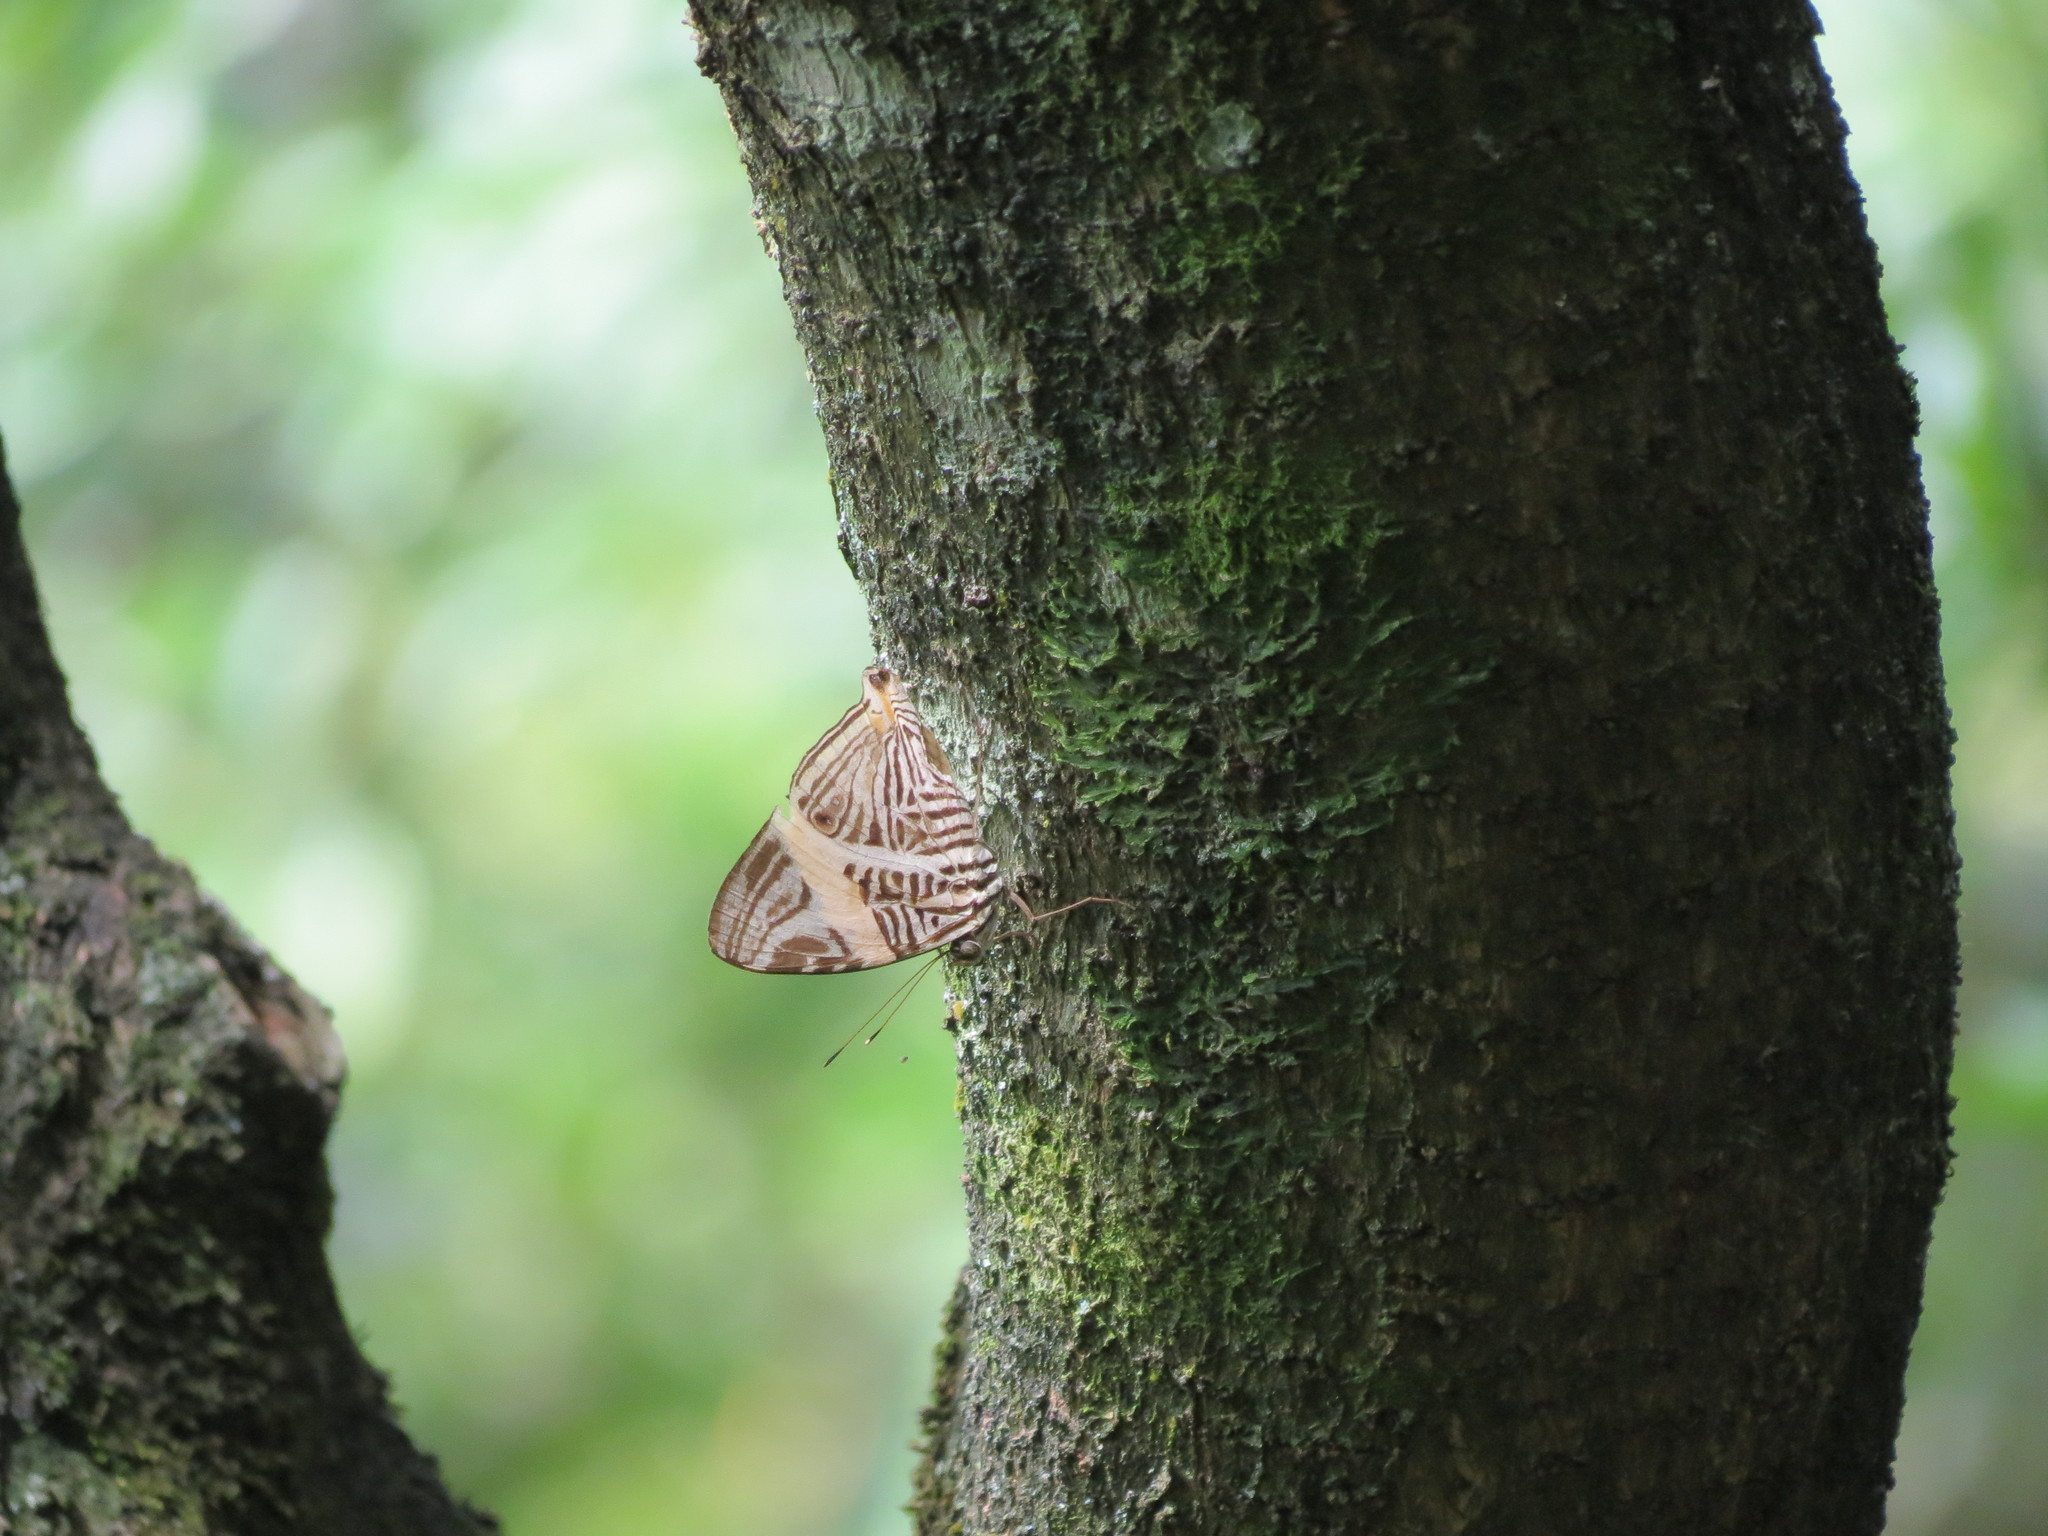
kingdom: Animalia
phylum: Arthropoda
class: Insecta
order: Lepidoptera
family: Nymphalidae
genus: Colobura
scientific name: Colobura dirce
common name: Dirce beauty
